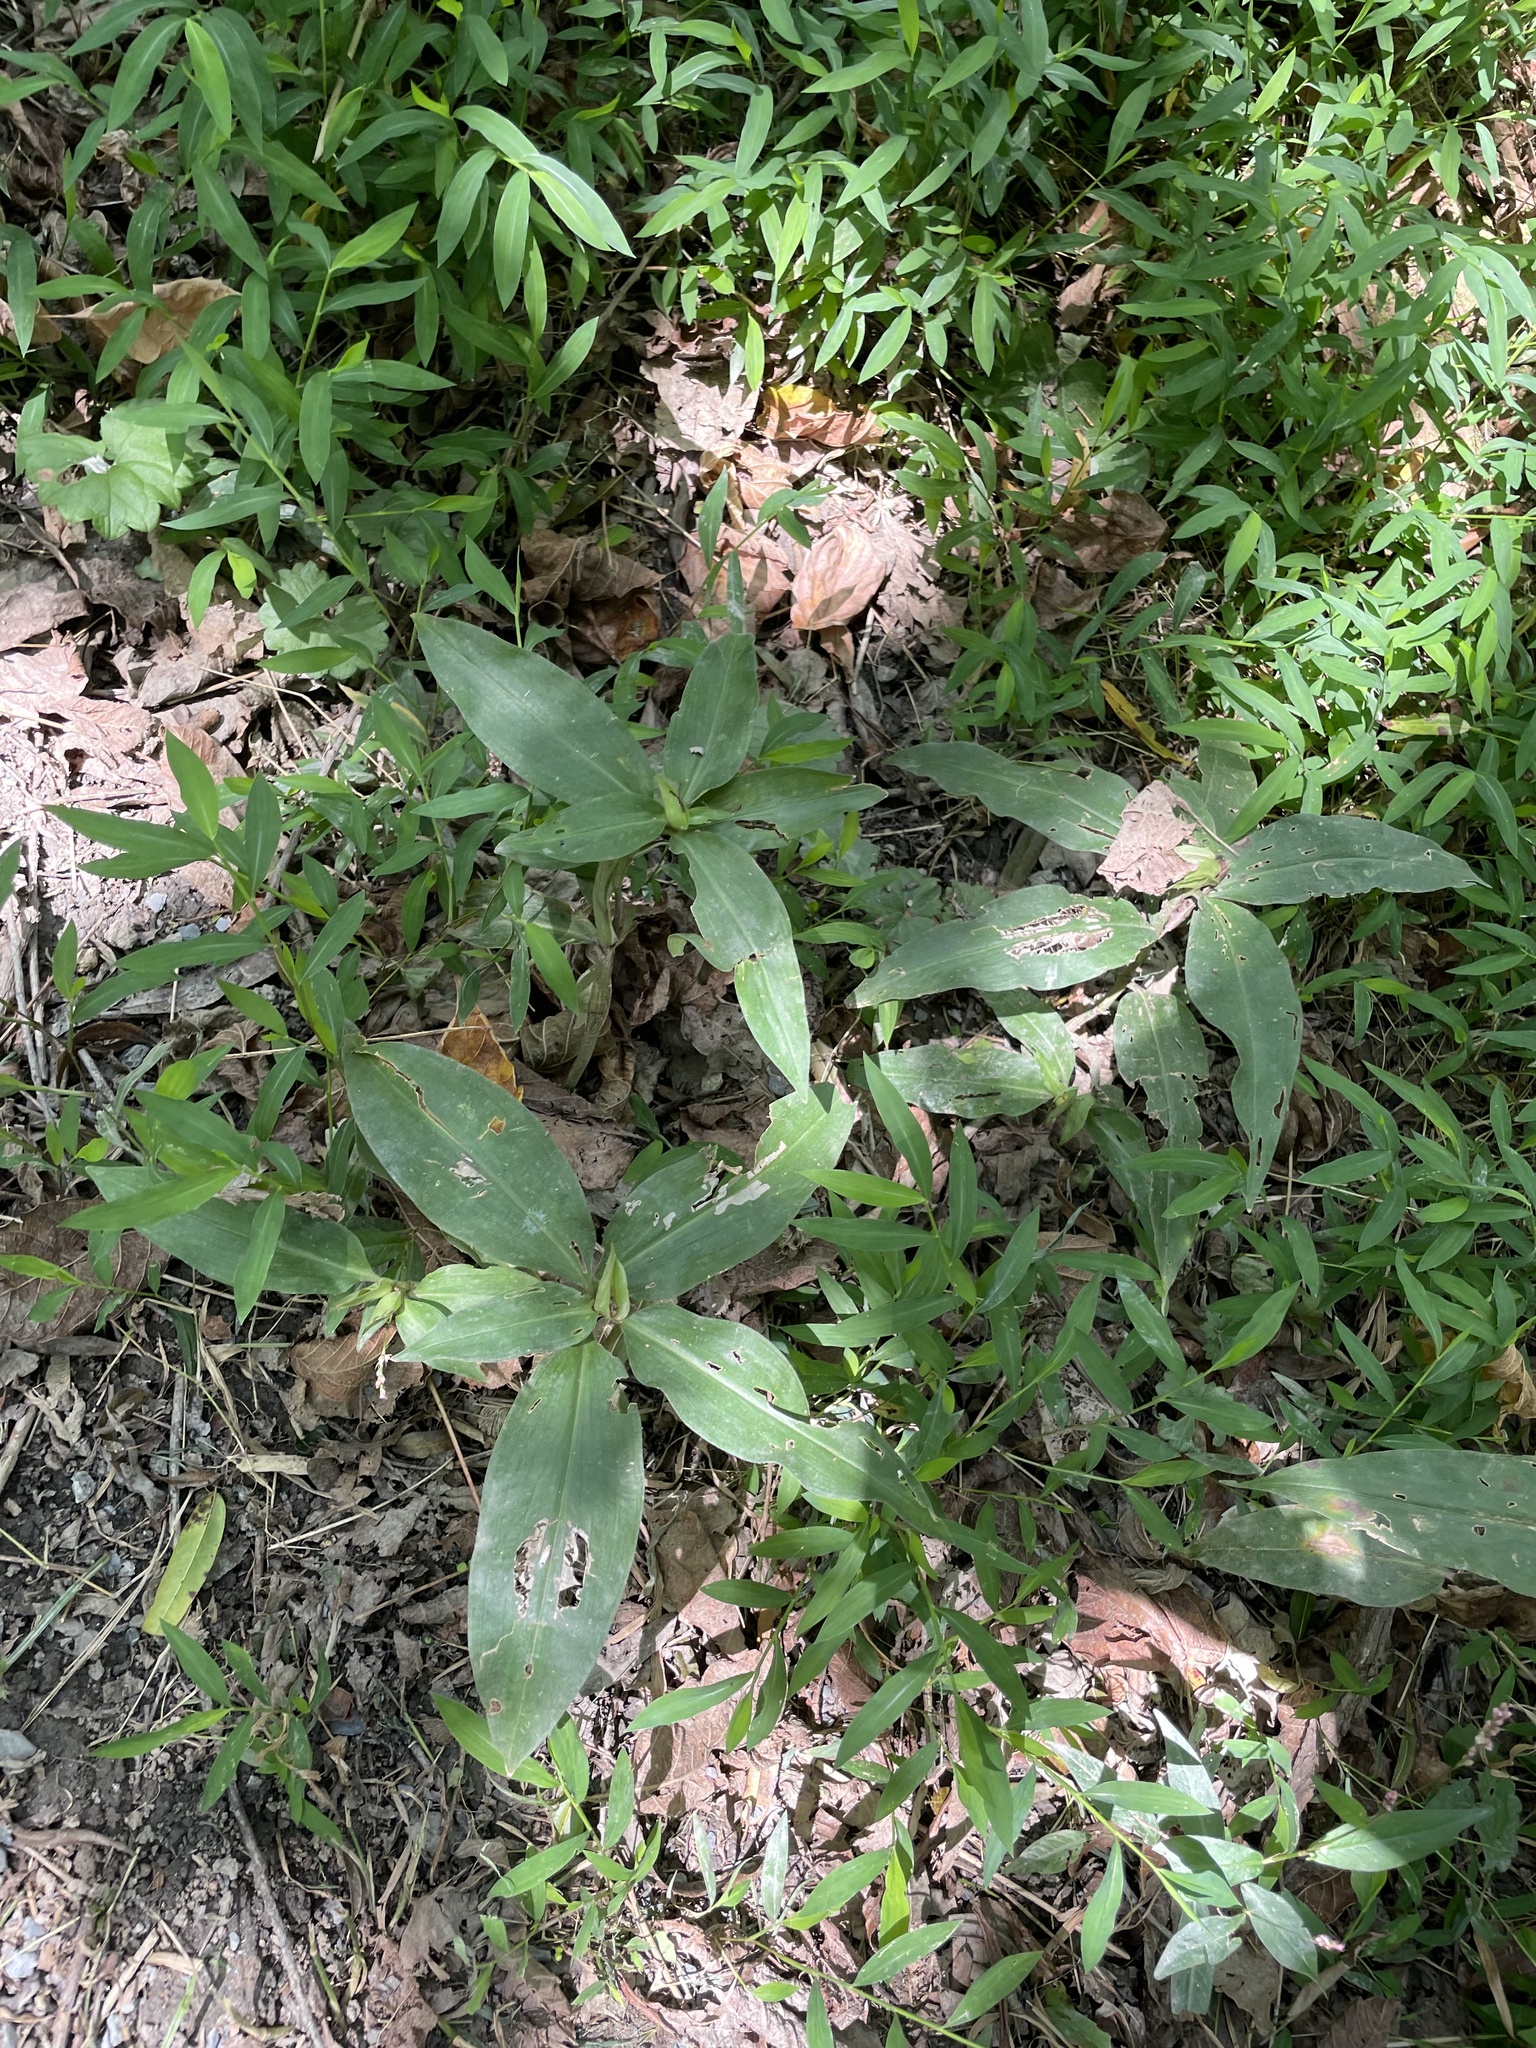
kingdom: Plantae
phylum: Tracheophyta
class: Liliopsida
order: Commelinales
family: Commelinaceae
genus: Commelina
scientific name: Commelina virginica
